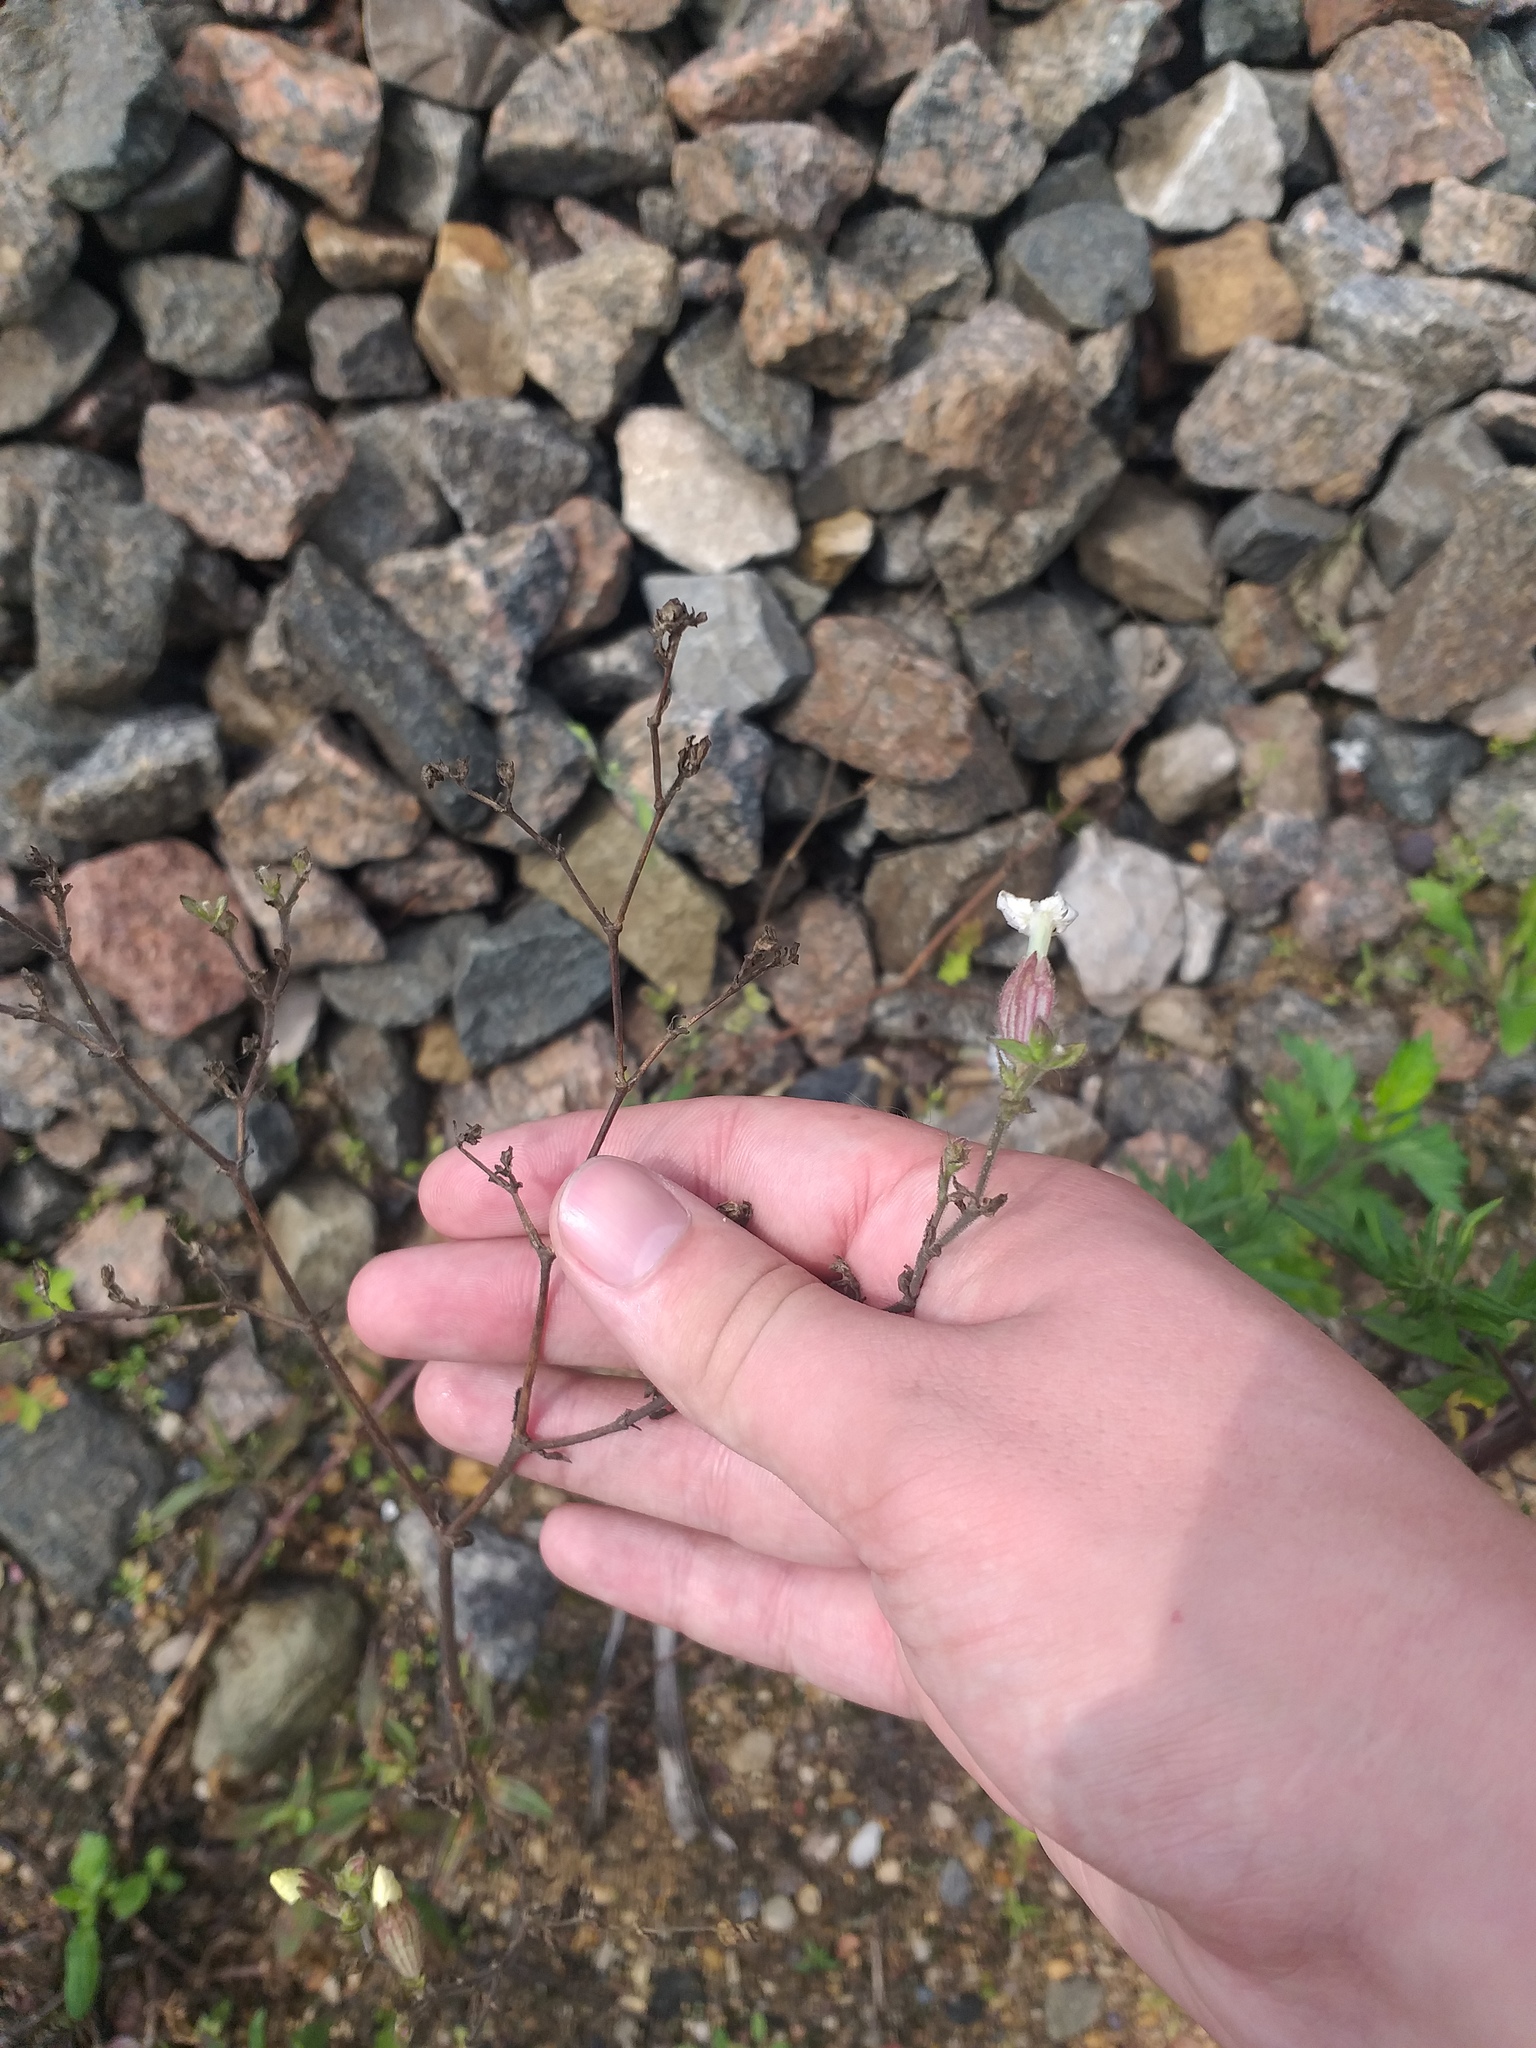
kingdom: Plantae
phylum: Tracheophyta
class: Magnoliopsida
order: Caryophyllales
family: Caryophyllaceae
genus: Silene
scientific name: Silene latifolia
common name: White campion
